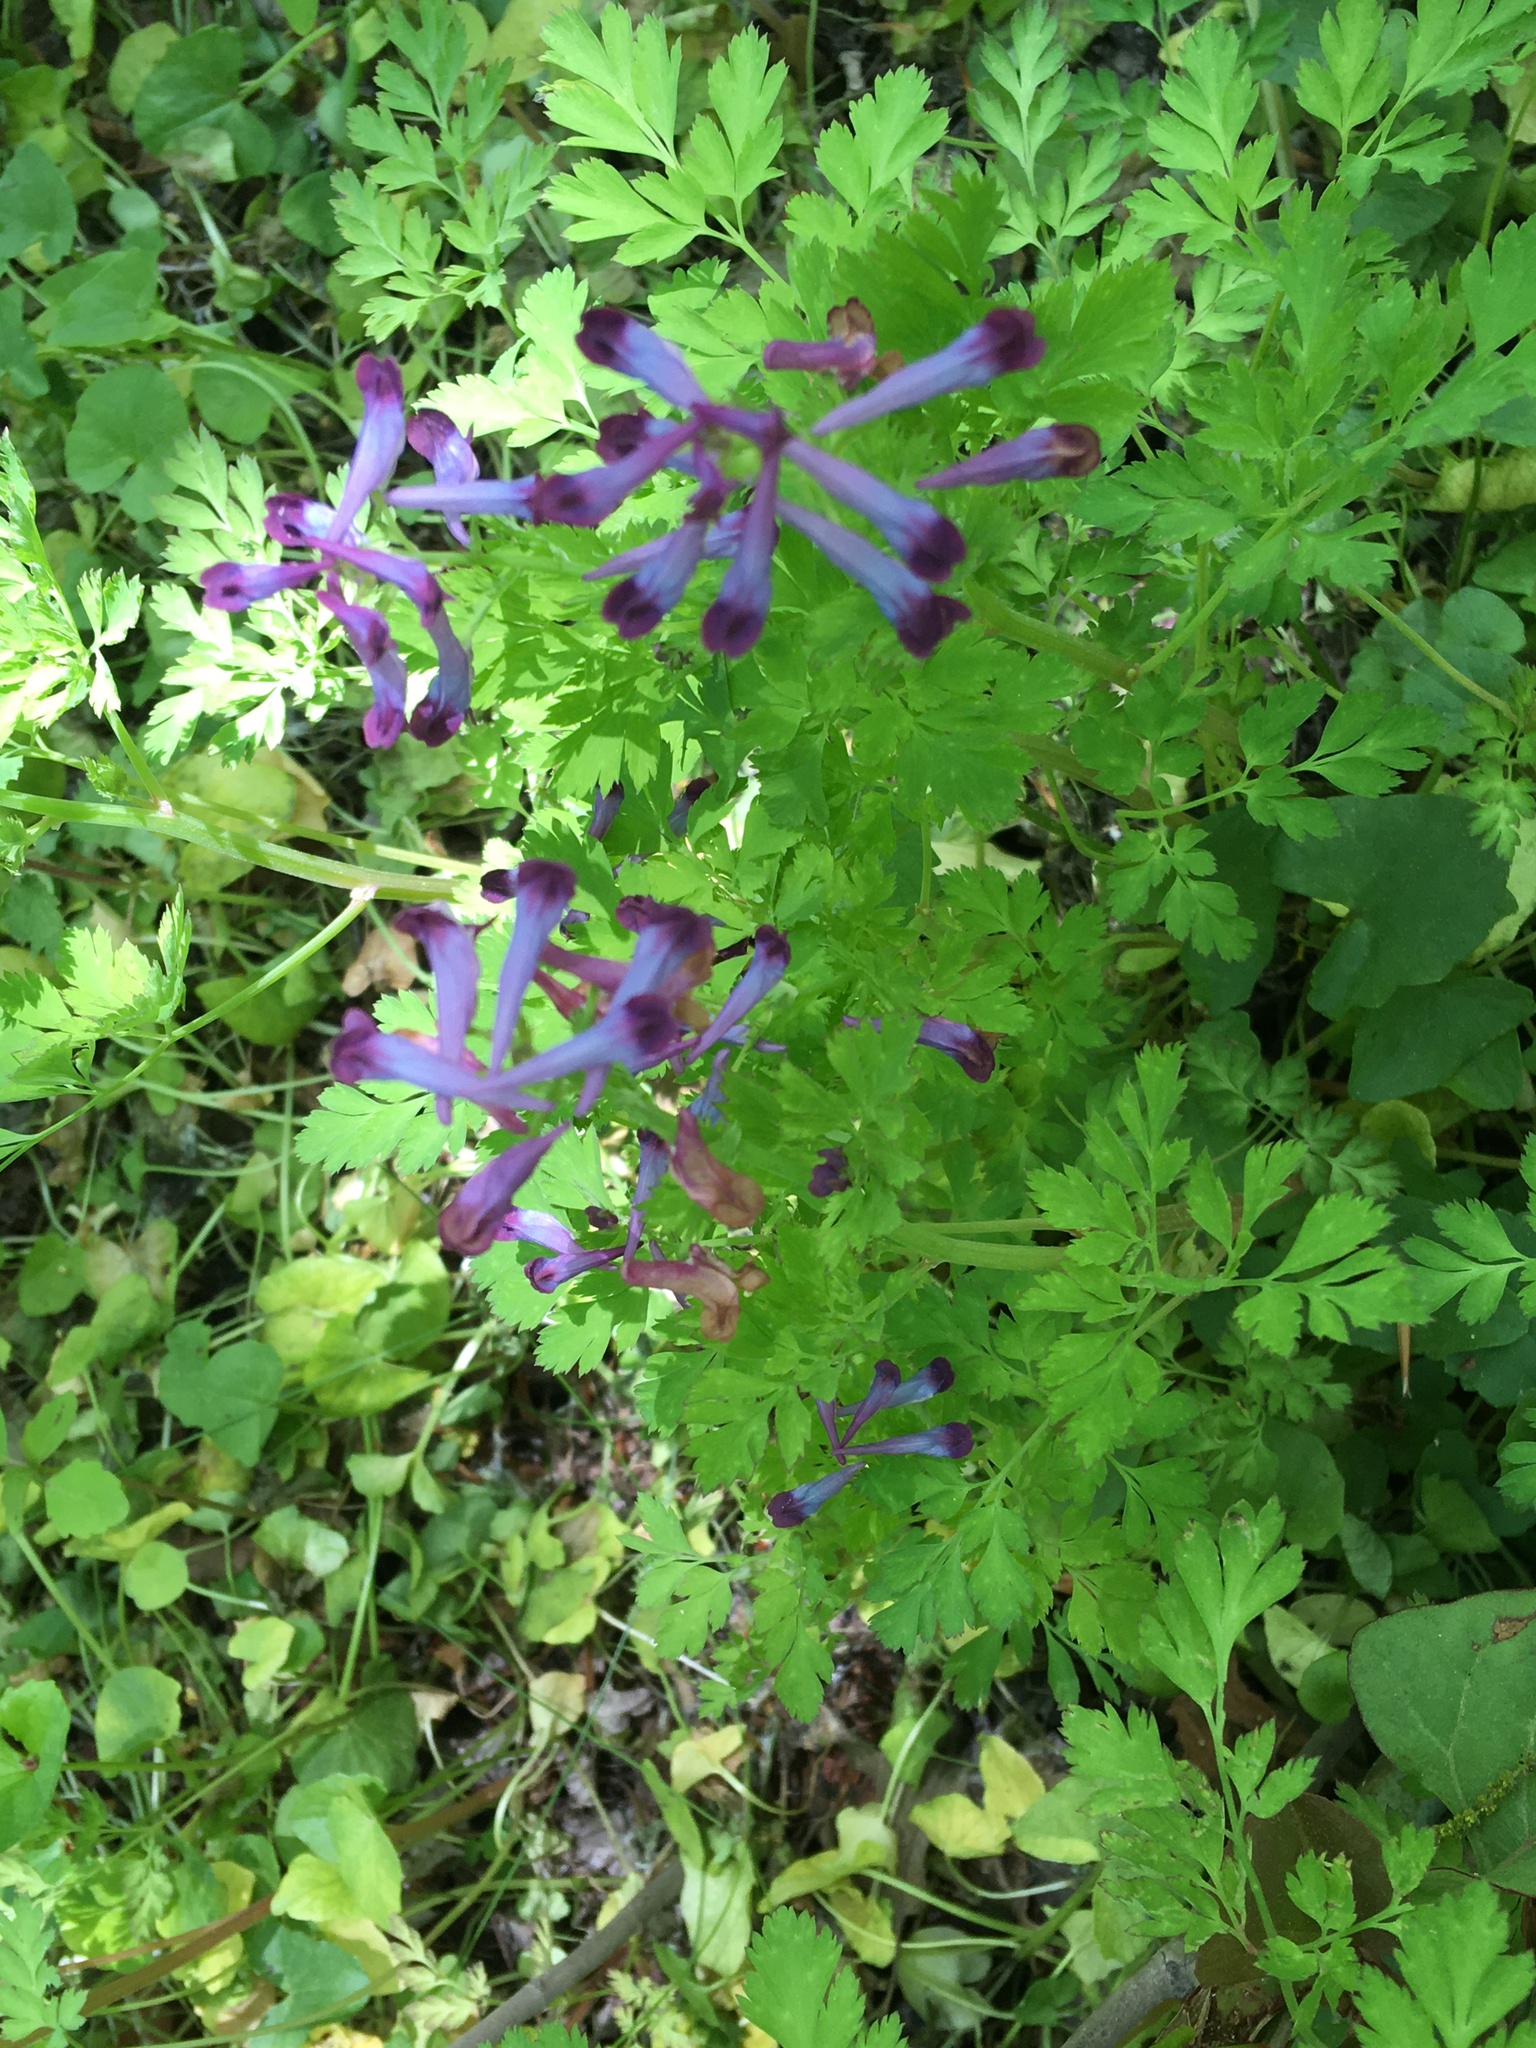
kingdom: Plantae
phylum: Tracheophyta
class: Magnoliopsida
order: Ranunculales
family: Papaveraceae
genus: Corydalis
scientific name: Corydalis incisa
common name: Incised fumewort
